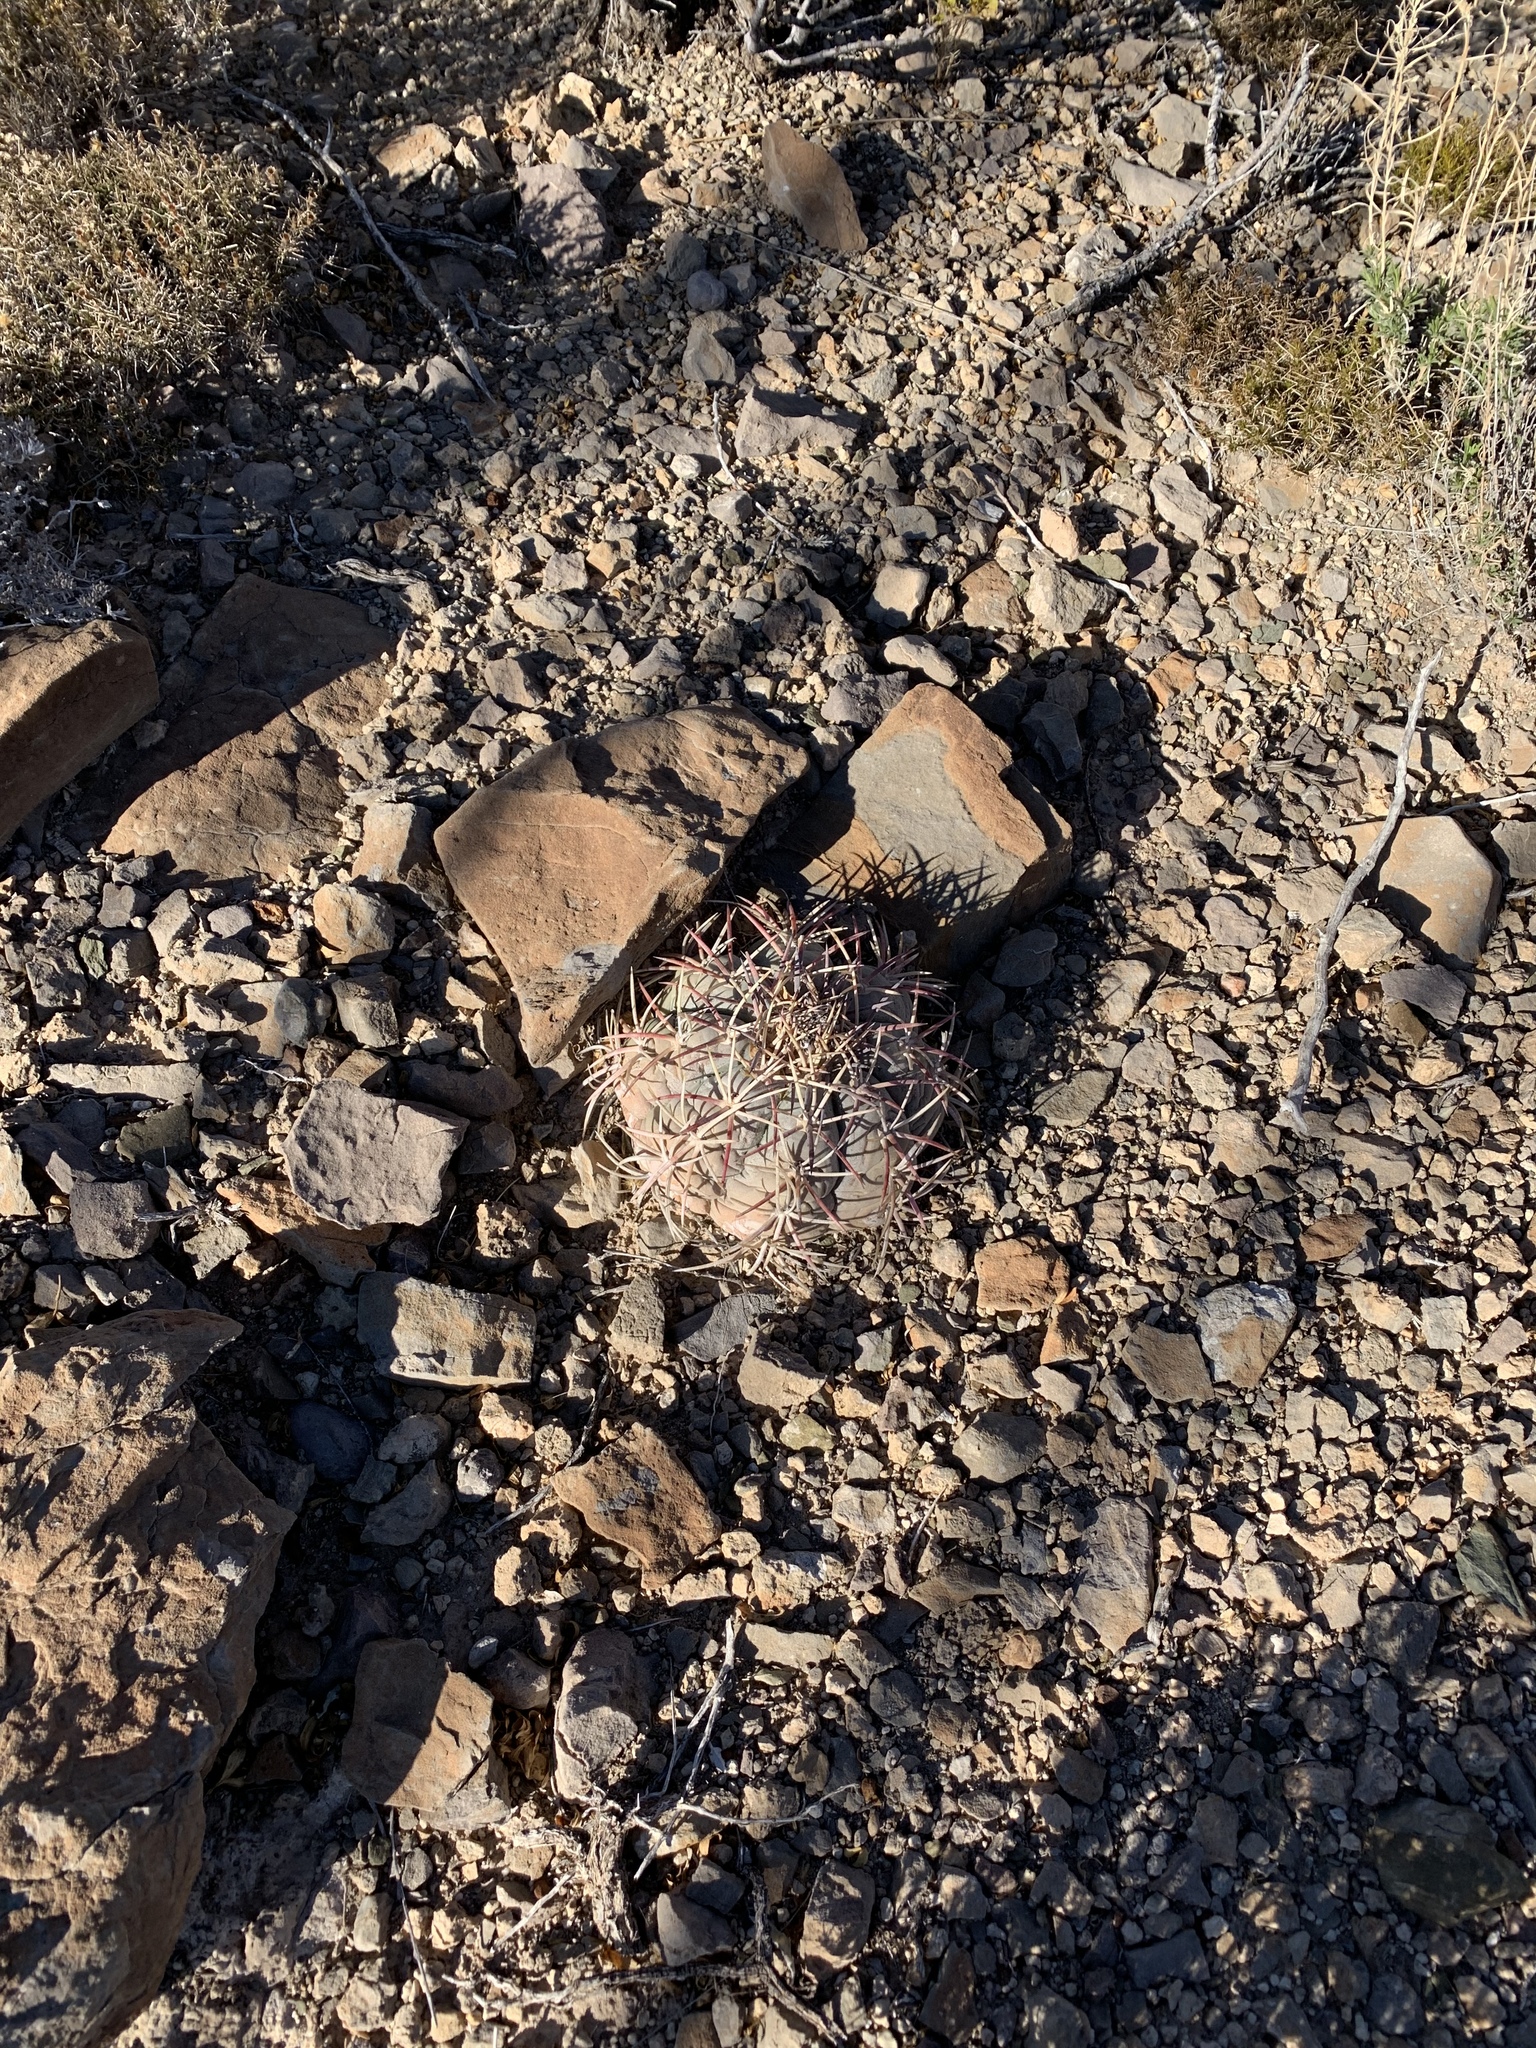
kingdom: Plantae
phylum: Tracheophyta
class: Magnoliopsida
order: Caryophyllales
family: Cactaceae
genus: Echinocactus
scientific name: Echinocactus horizonthalonius
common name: Devilshead
